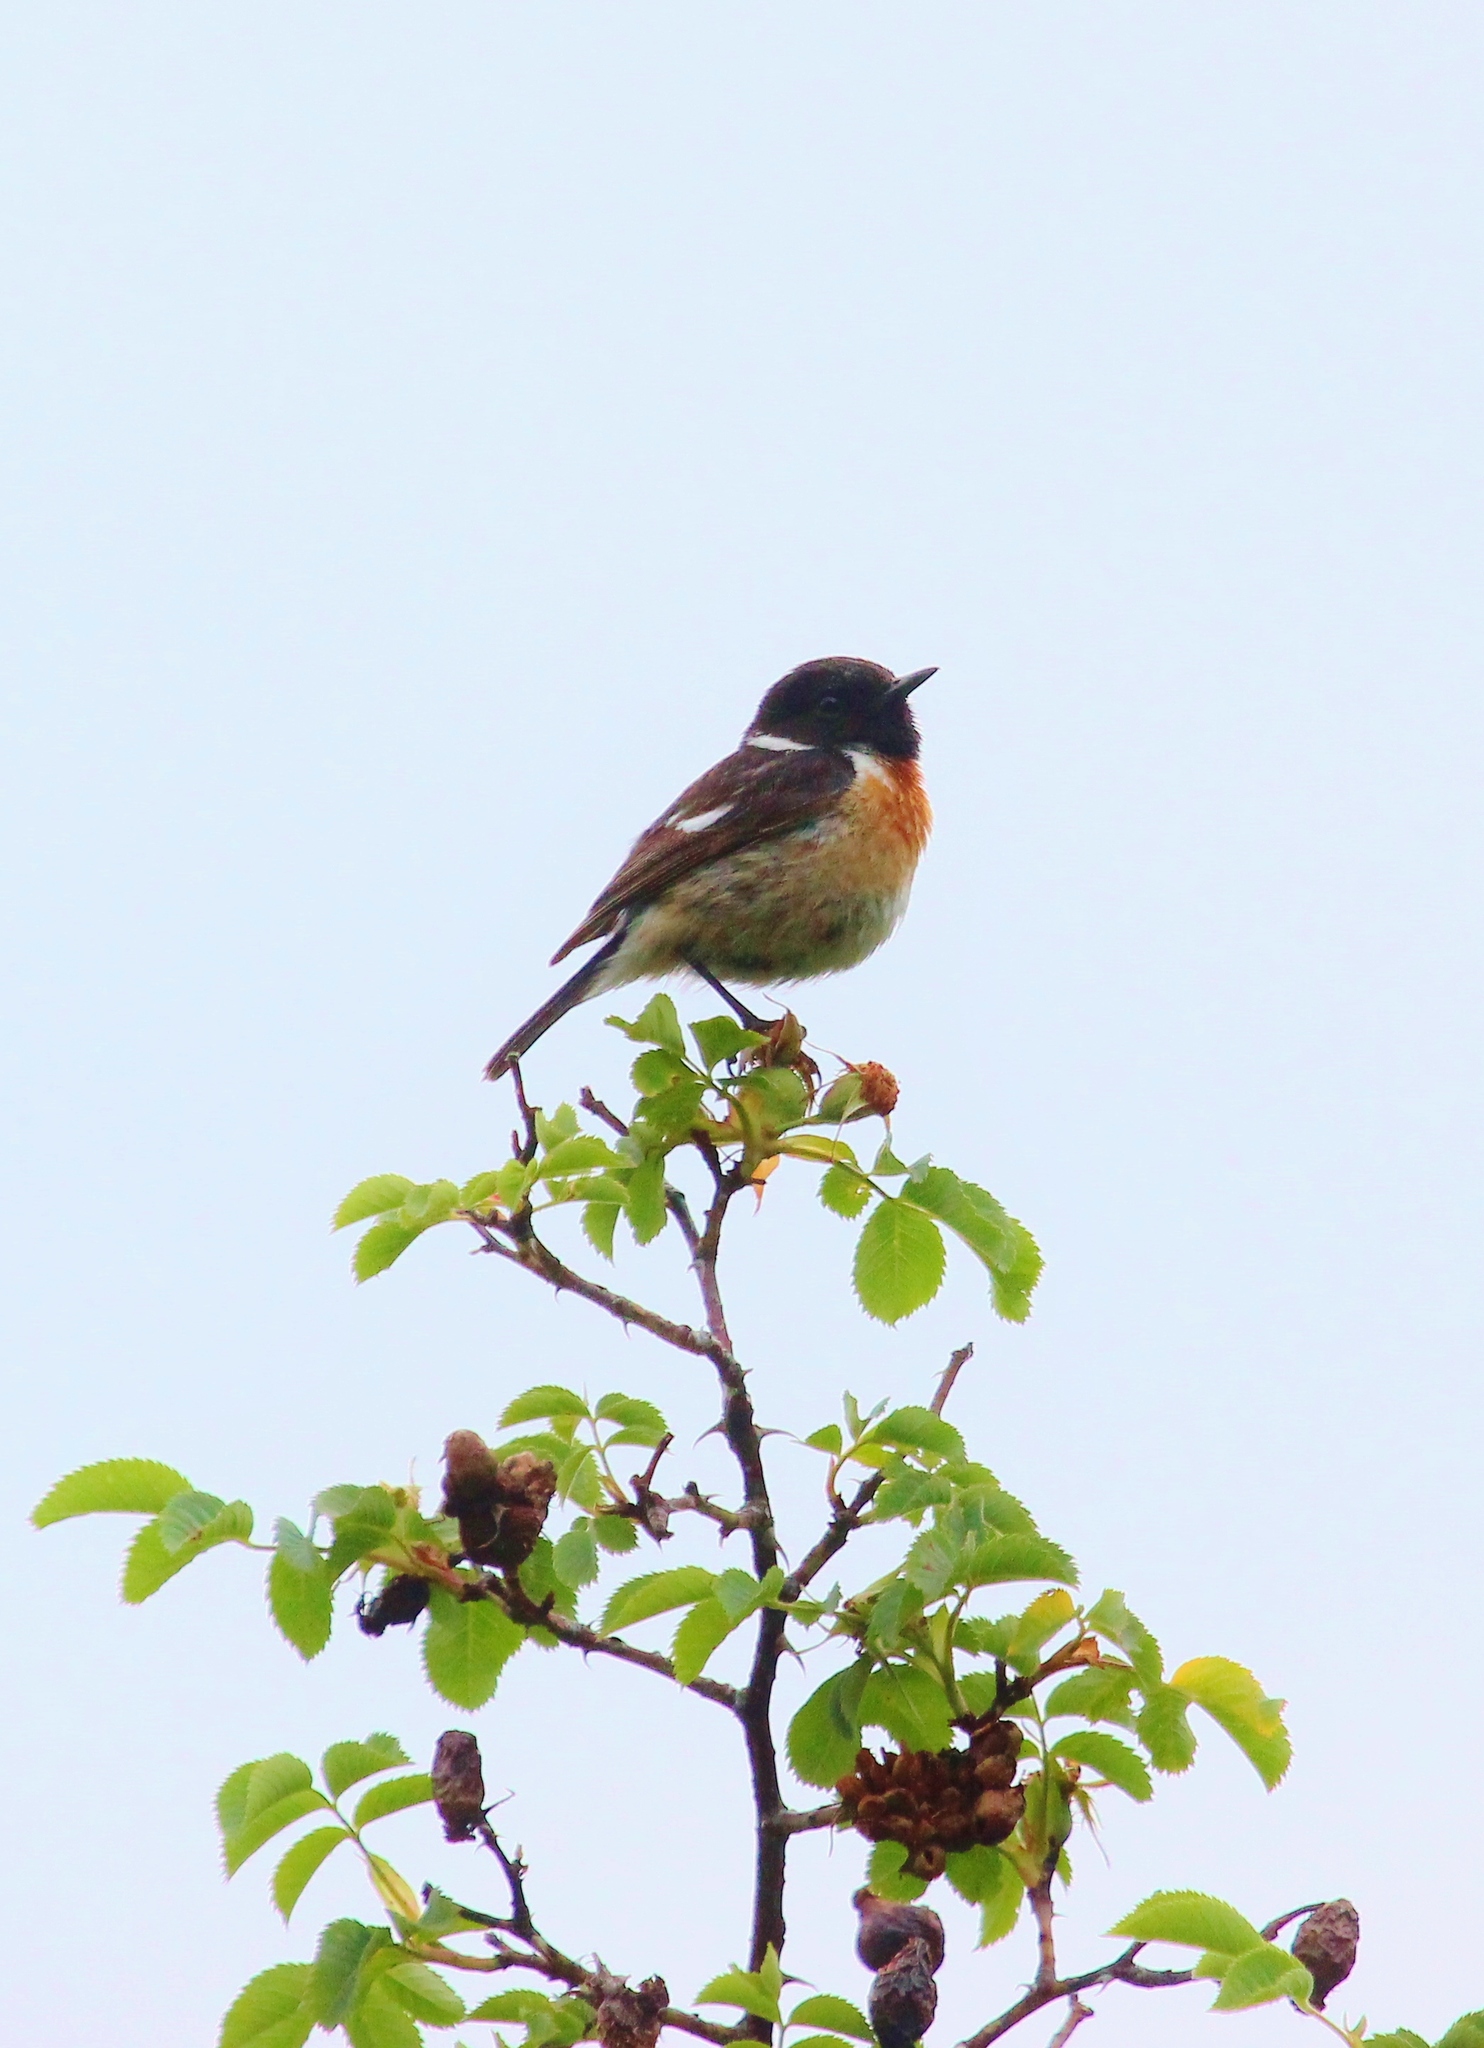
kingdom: Animalia
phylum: Chordata
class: Aves
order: Passeriformes
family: Muscicapidae
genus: Saxicola
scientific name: Saxicola rubicola
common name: European stonechat
